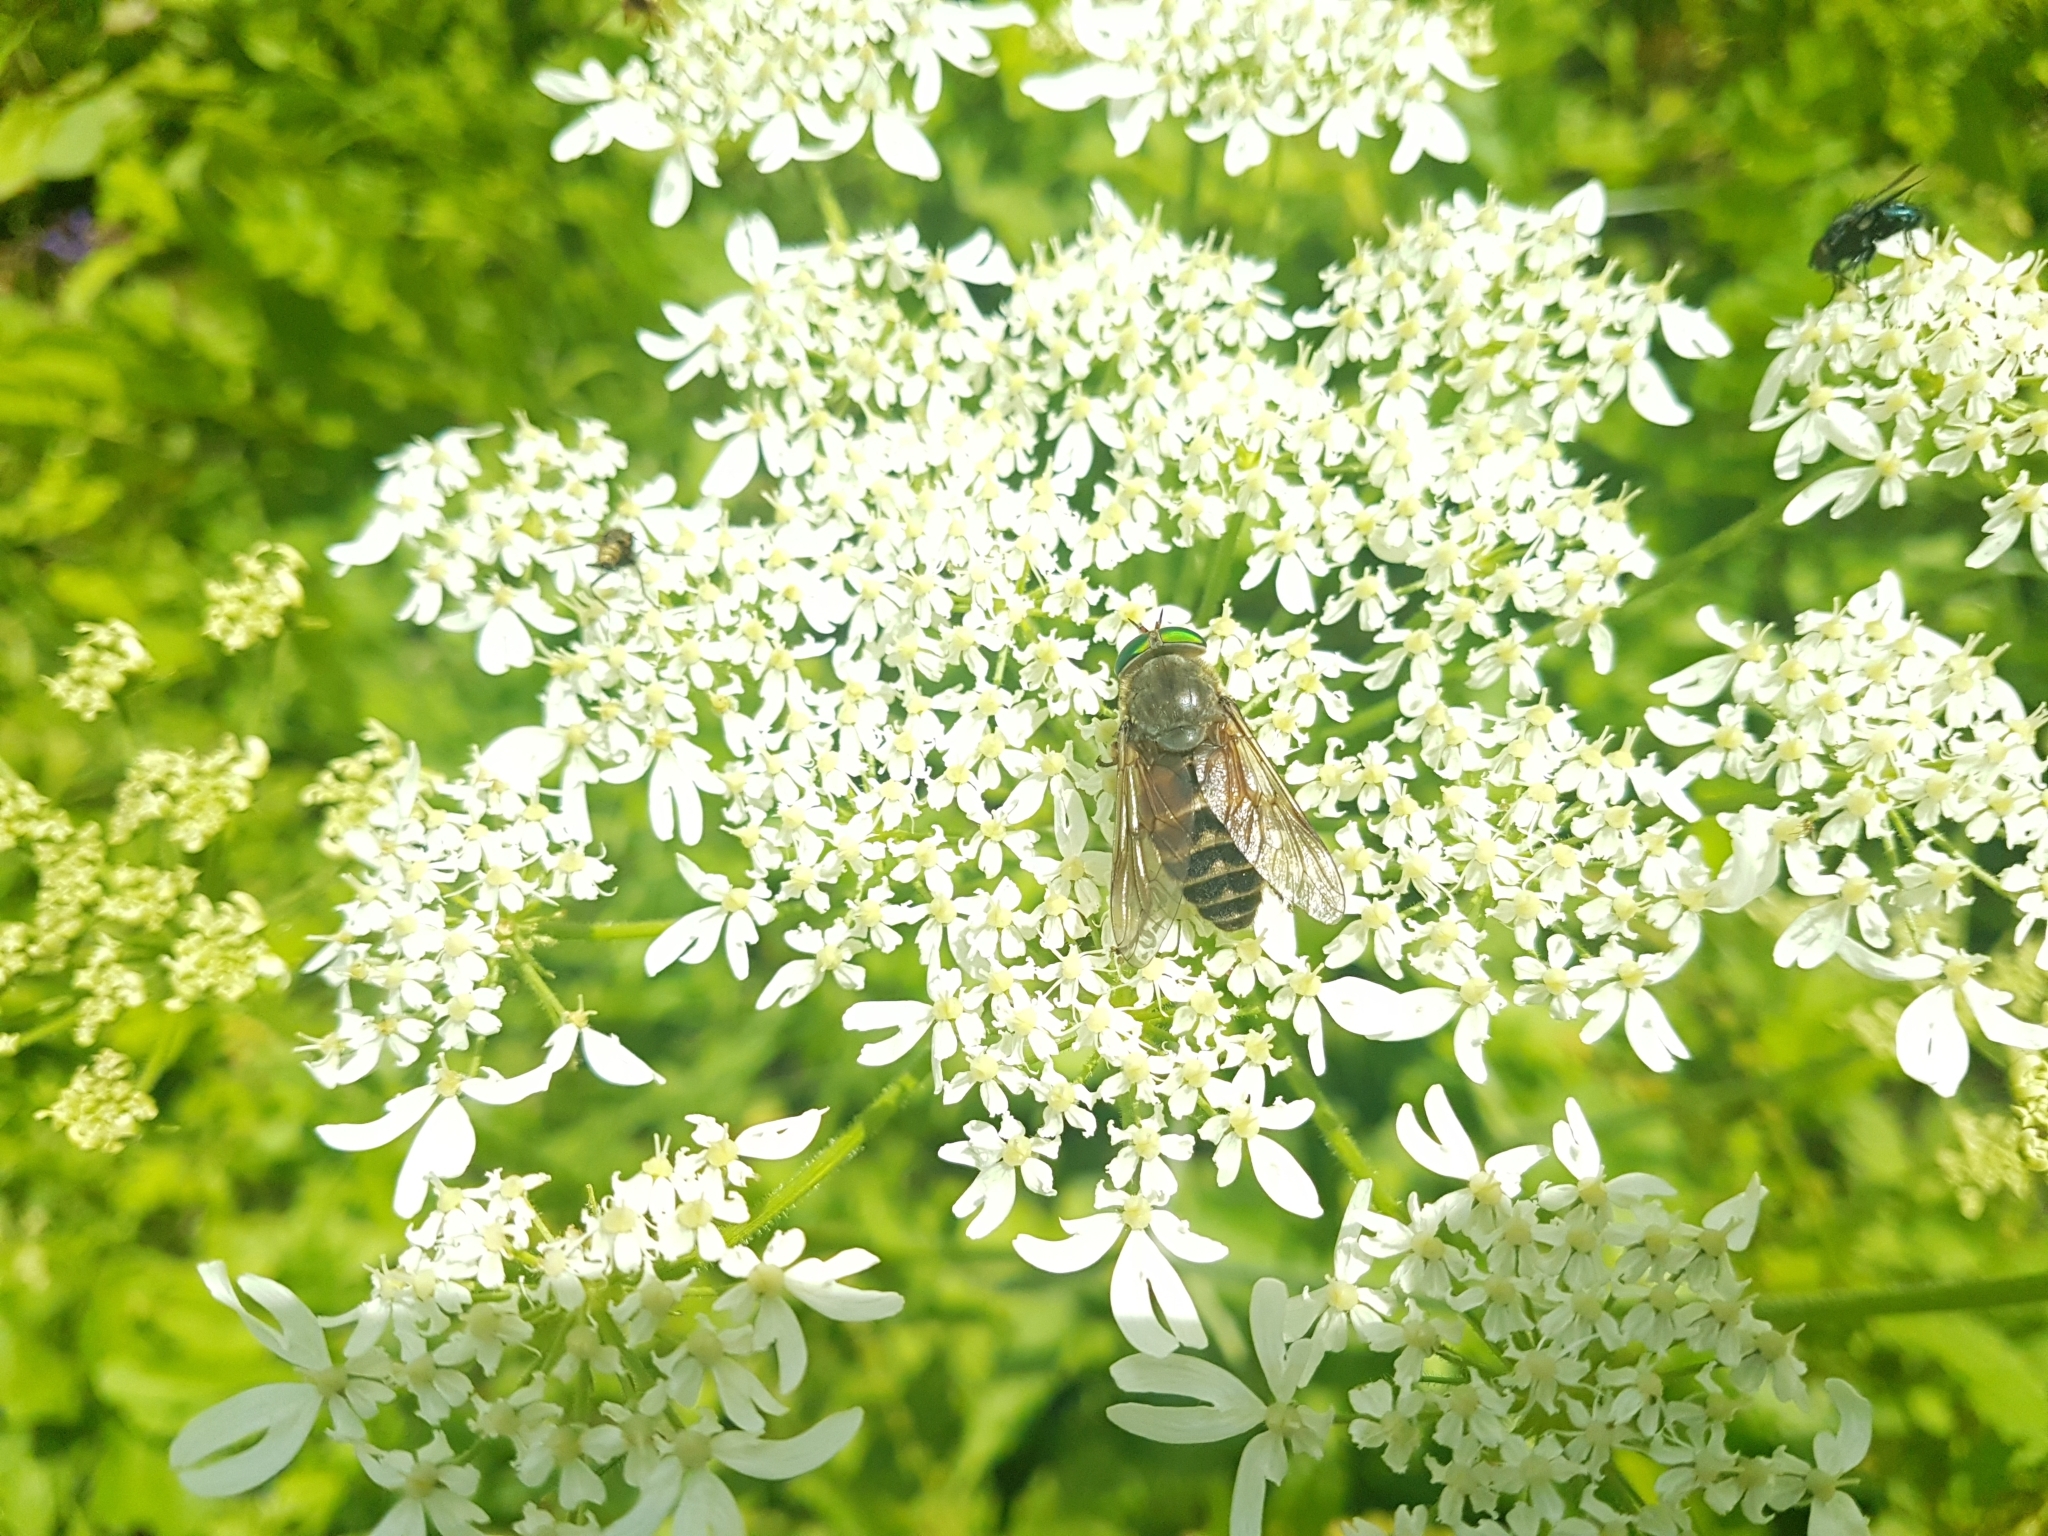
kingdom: Animalia
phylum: Arthropoda
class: Insecta
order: Diptera
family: Tabanidae
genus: Philipomyia
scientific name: Philipomyia aprica
